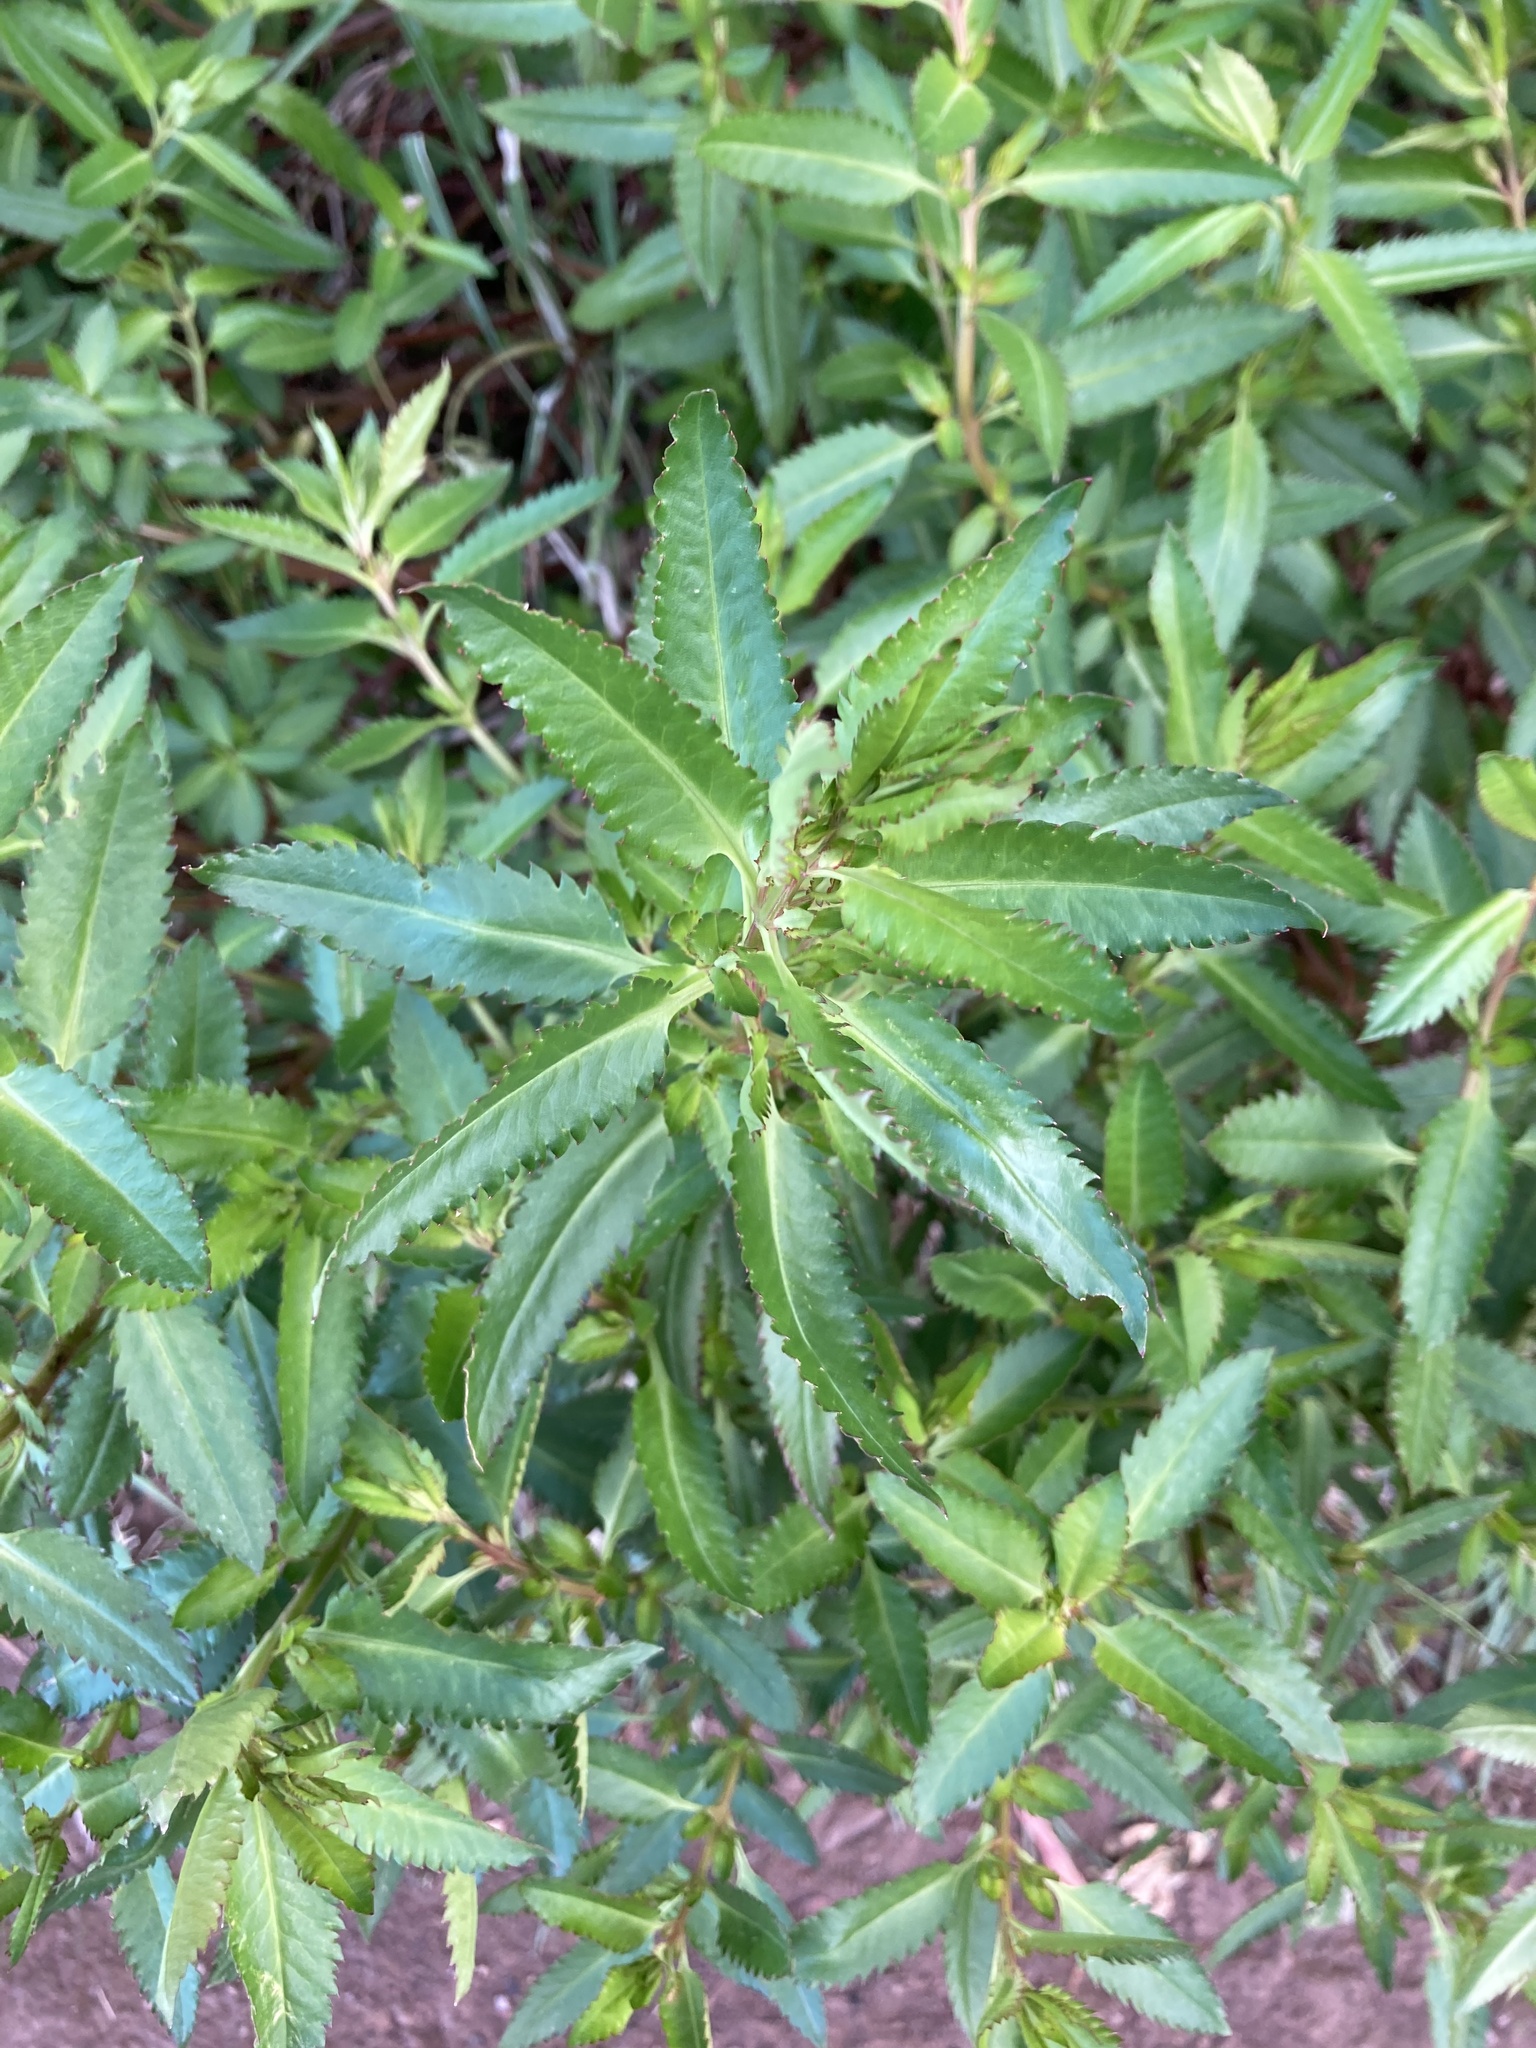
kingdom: Plantae
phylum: Tracheophyta
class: Magnoliopsida
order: Saxifragales
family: Haloragaceae
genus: Haloragis
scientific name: Haloragis erecta
